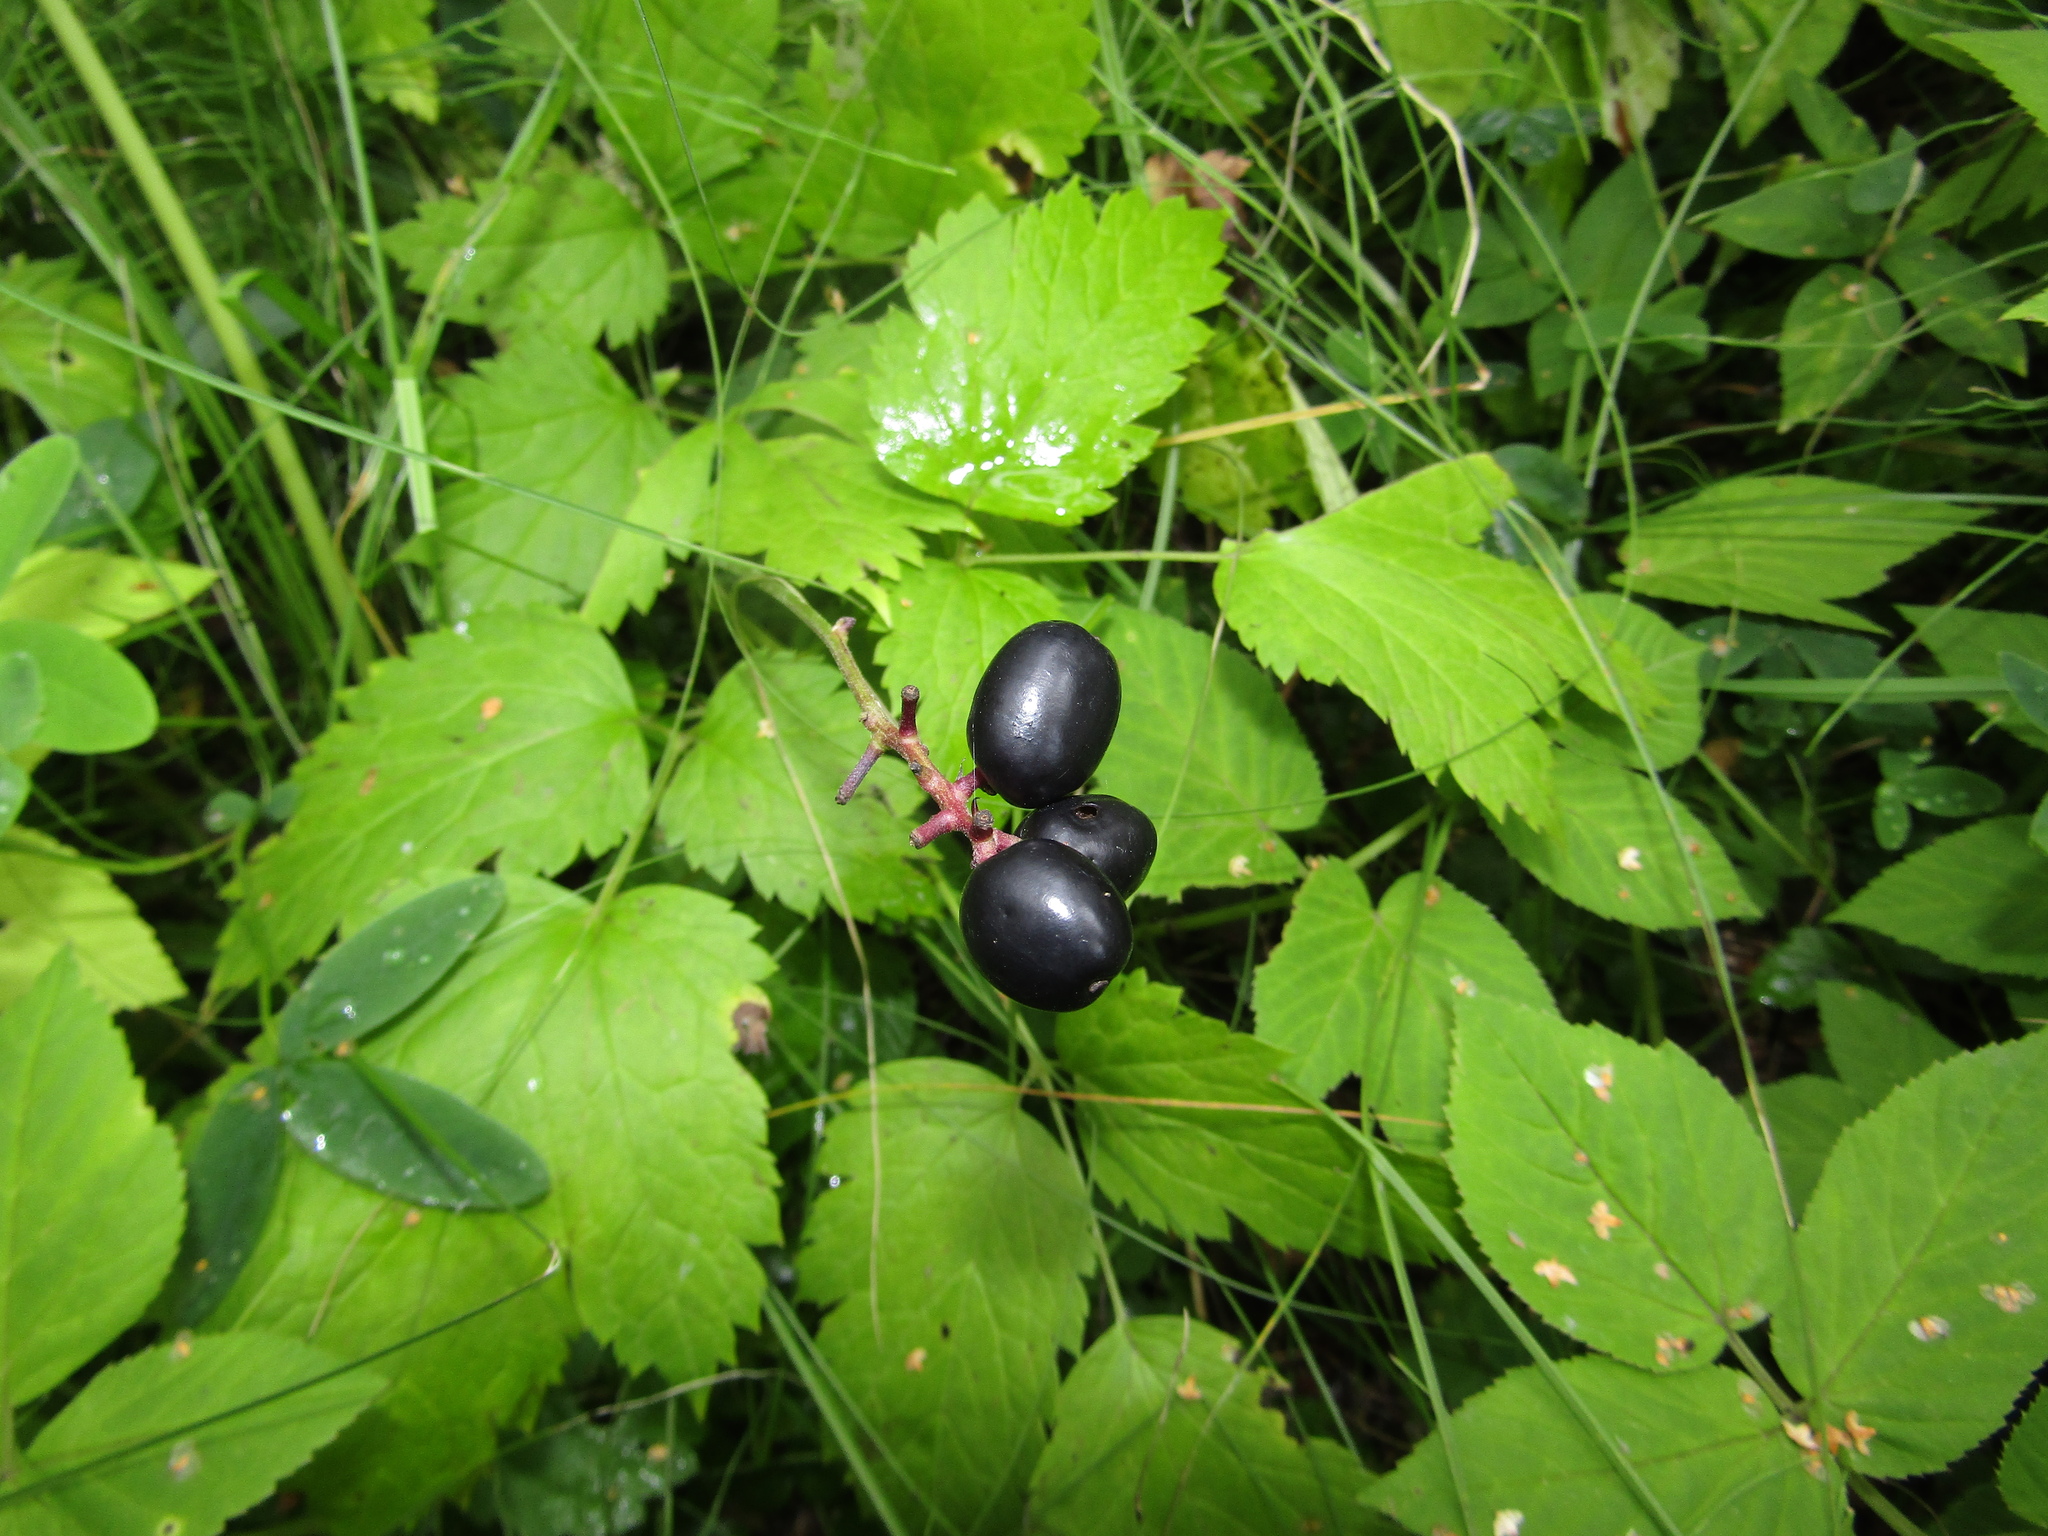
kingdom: Plantae
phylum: Tracheophyta
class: Magnoliopsida
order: Ranunculales
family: Ranunculaceae
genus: Actaea
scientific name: Actaea spicata
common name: Baneberry
